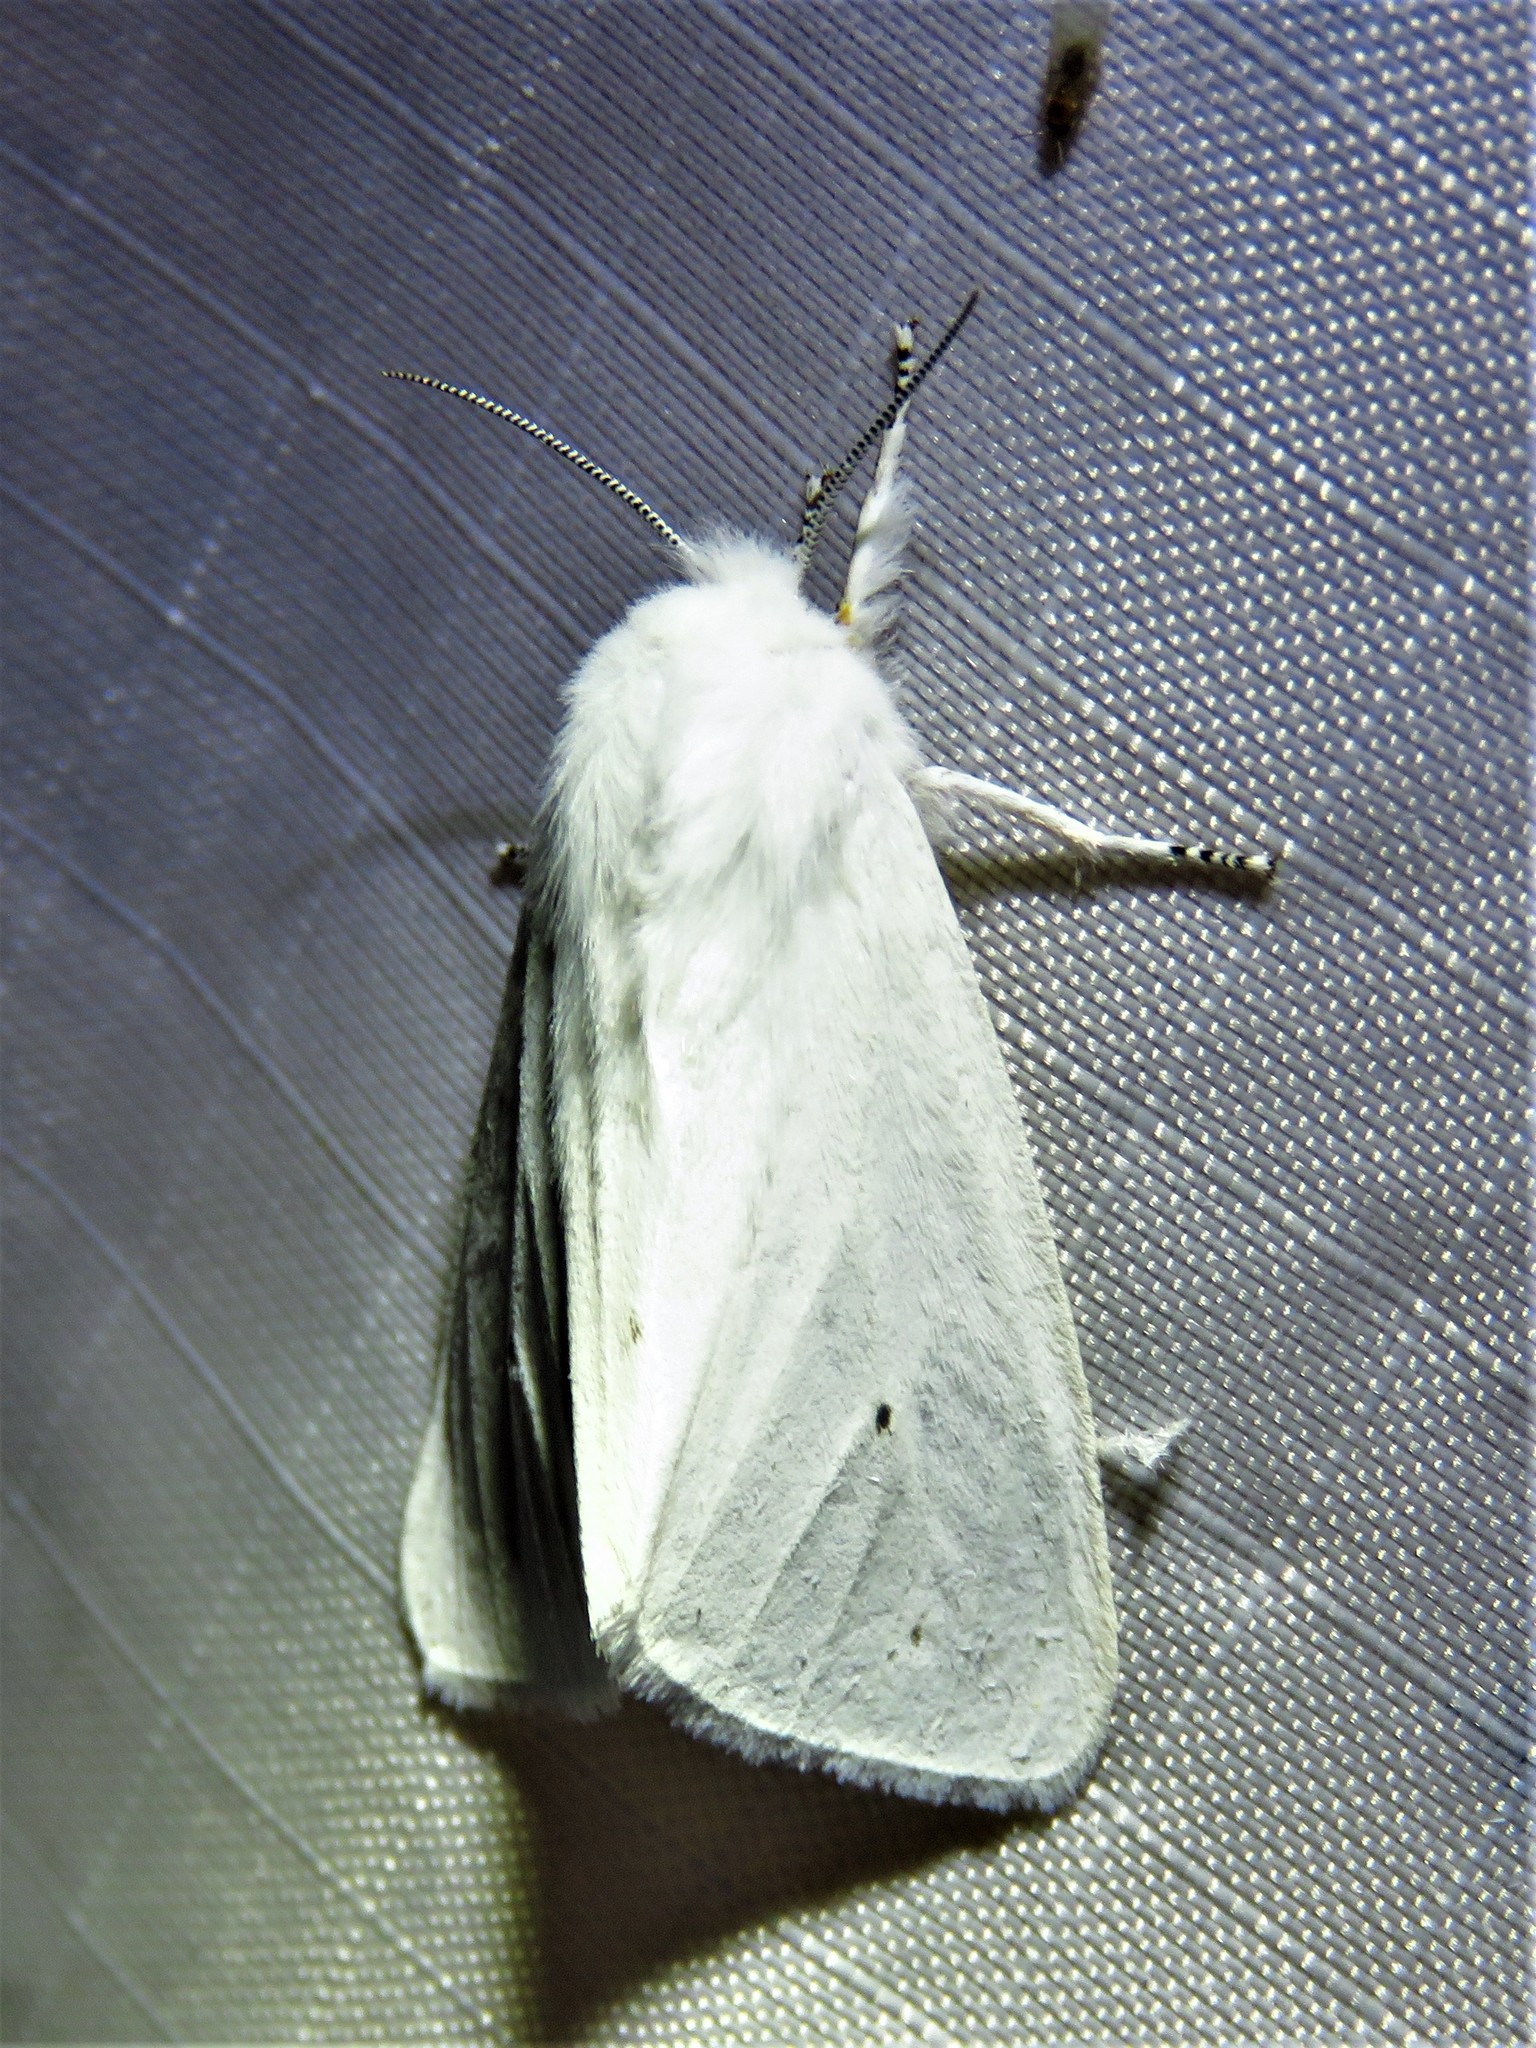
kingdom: Animalia
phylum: Arthropoda
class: Insecta
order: Lepidoptera
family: Erebidae
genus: Spilosoma
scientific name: Spilosoma virginica
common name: Virginia tiger moth
